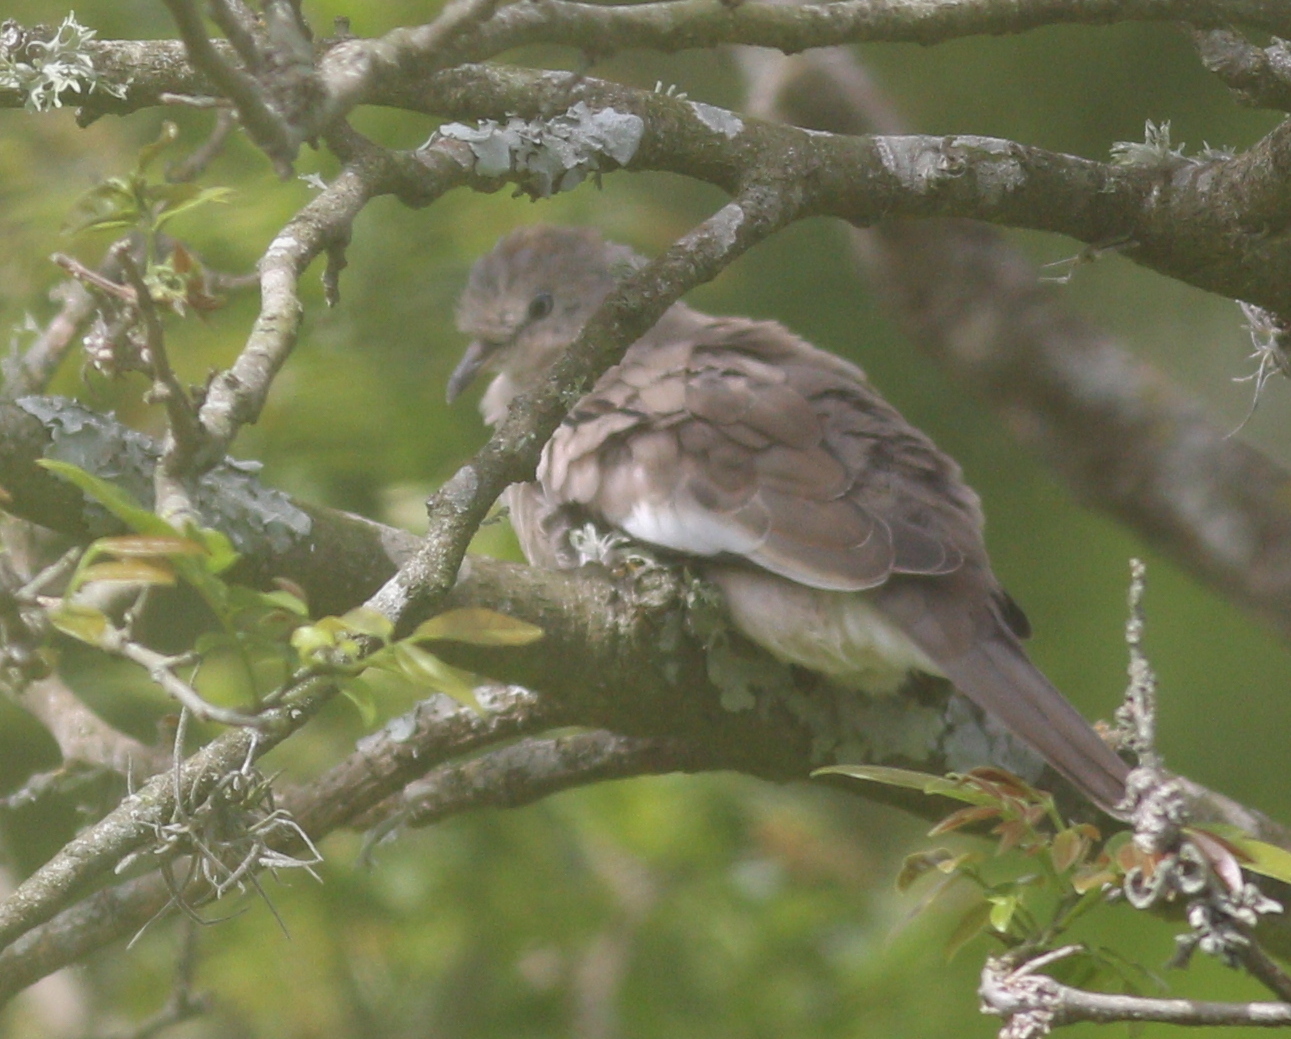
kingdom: Animalia
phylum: Chordata
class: Aves
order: Columbiformes
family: Columbidae
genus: Columbina
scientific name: Columbina picui
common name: Picui ground dove
